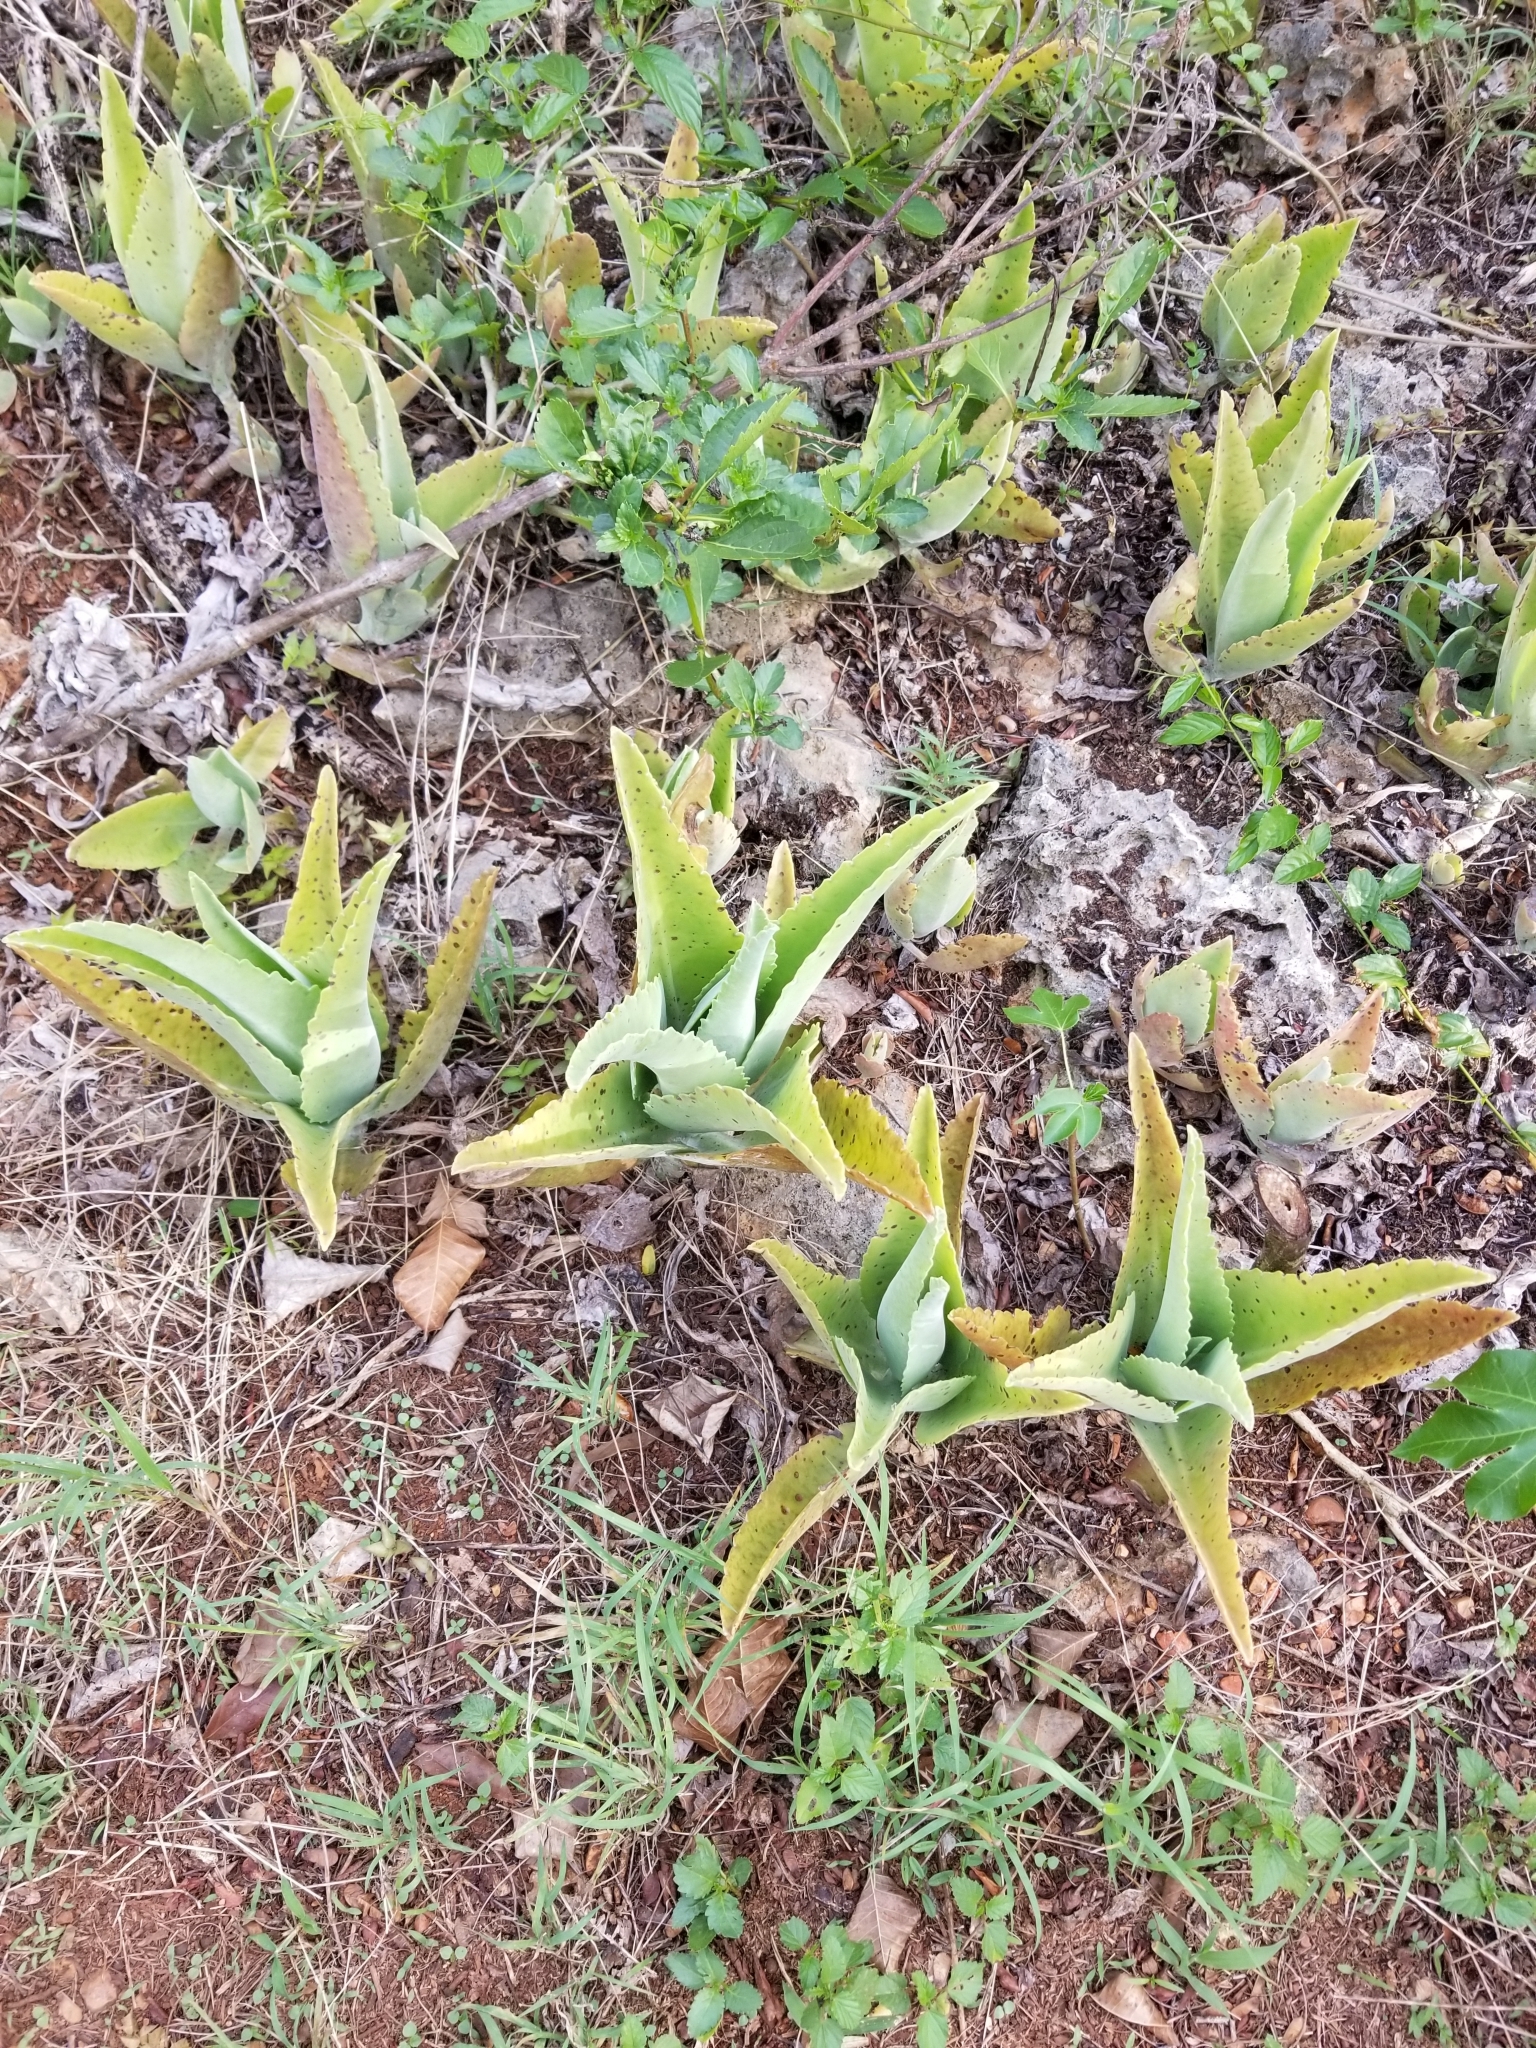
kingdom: Plantae
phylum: Tracheophyta
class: Magnoliopsida
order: Saxifragales
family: Crassulaceae
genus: Kalanchoe
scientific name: Kalanchoe gastonis-bonnieri
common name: Palm beachbells
